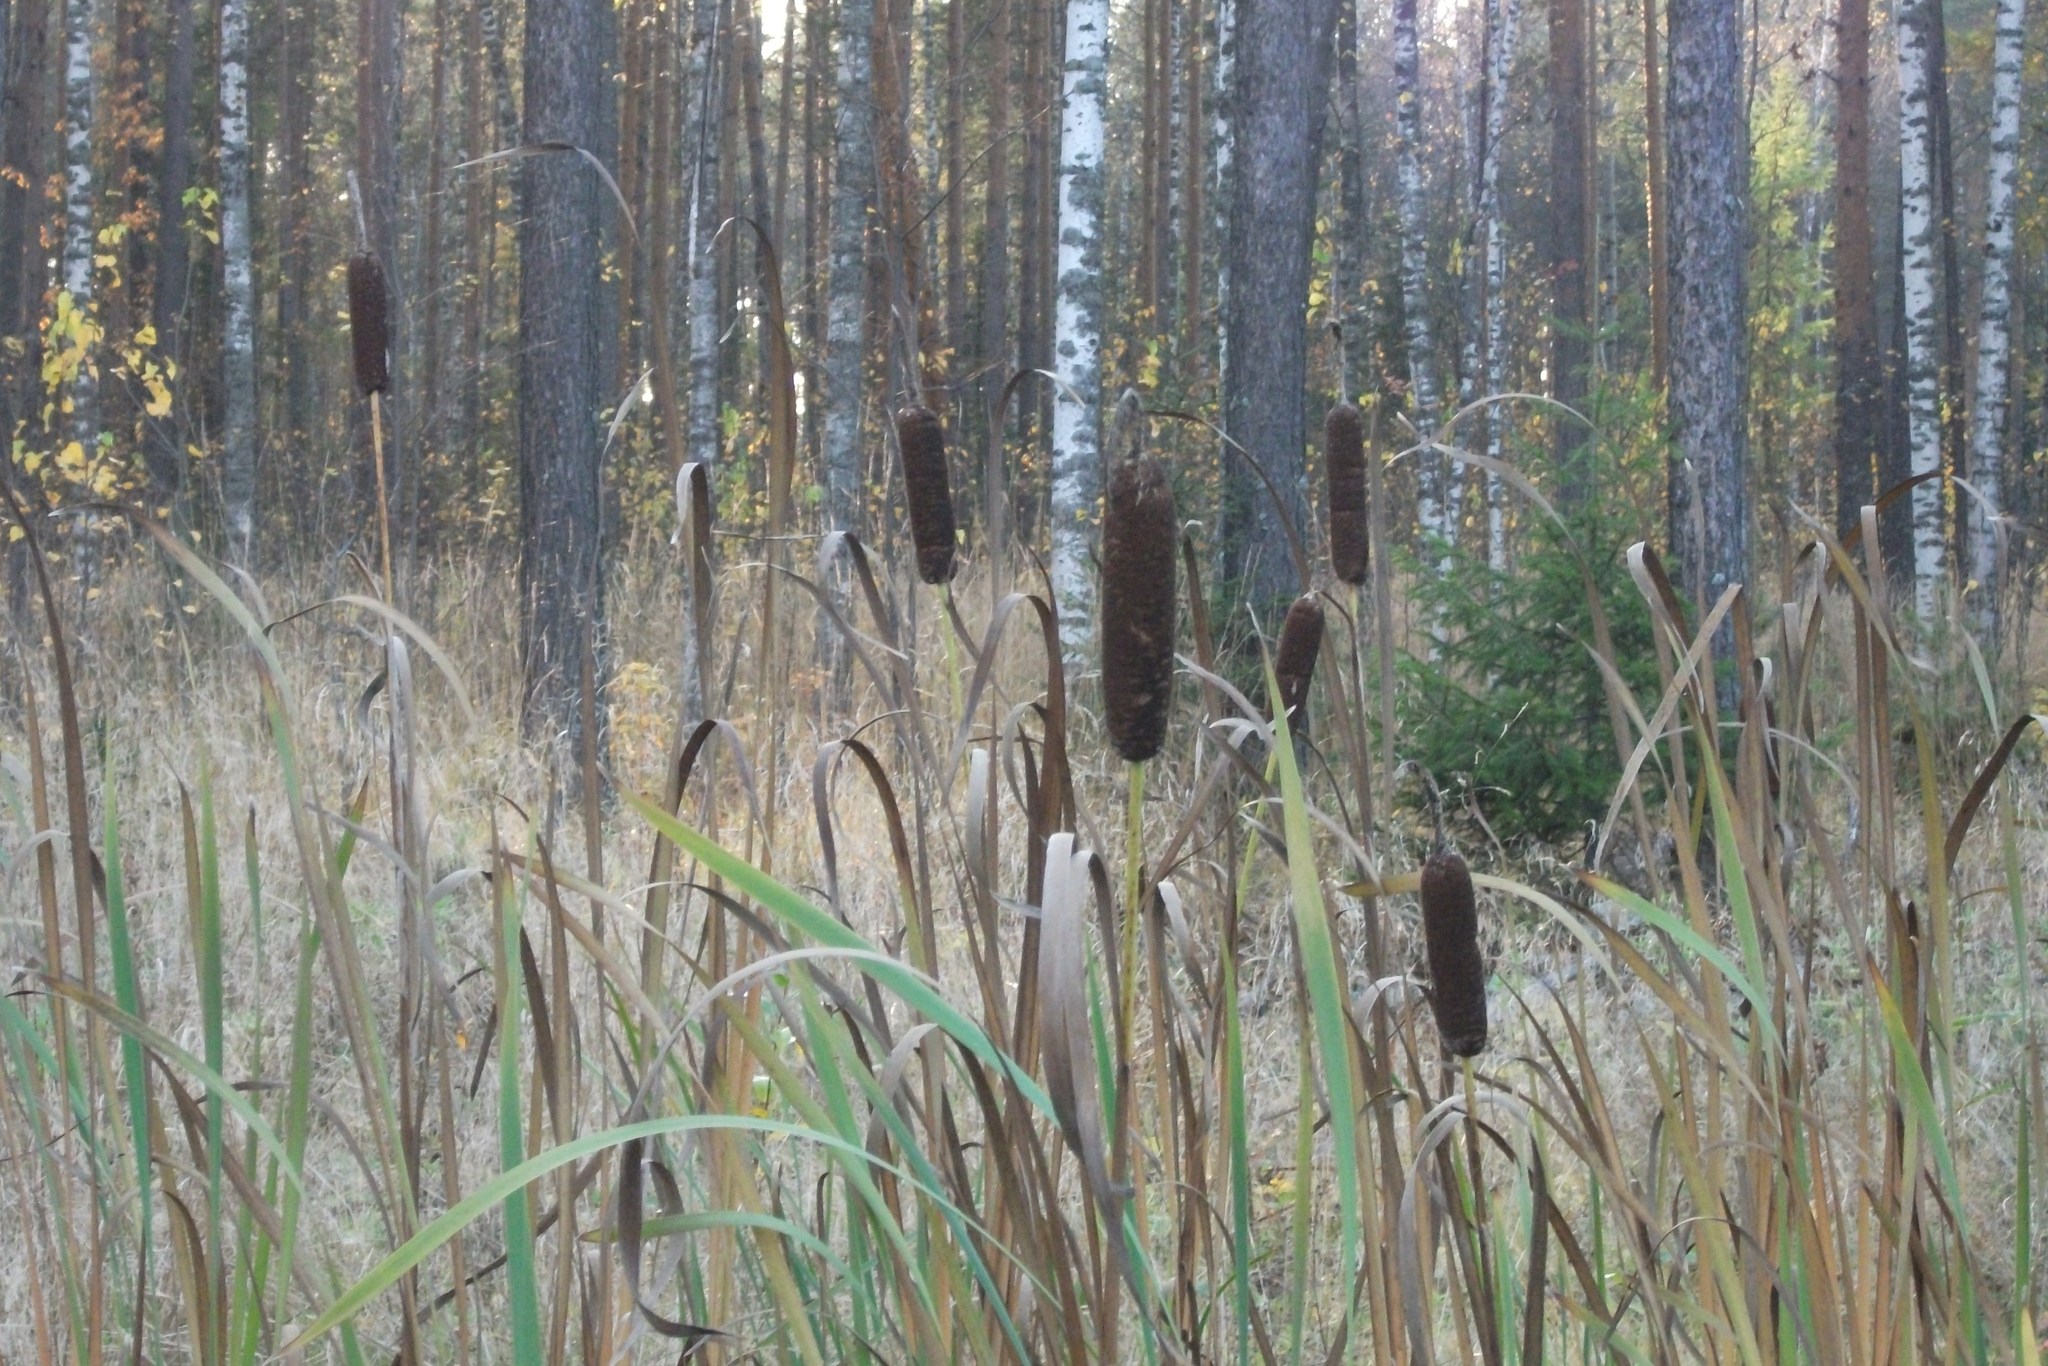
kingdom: Plantae
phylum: Tracheophyta
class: Liliopsida
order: Poales
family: Typhaceae
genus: Typha
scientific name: Typha latifolia
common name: Broadleaf cattail
